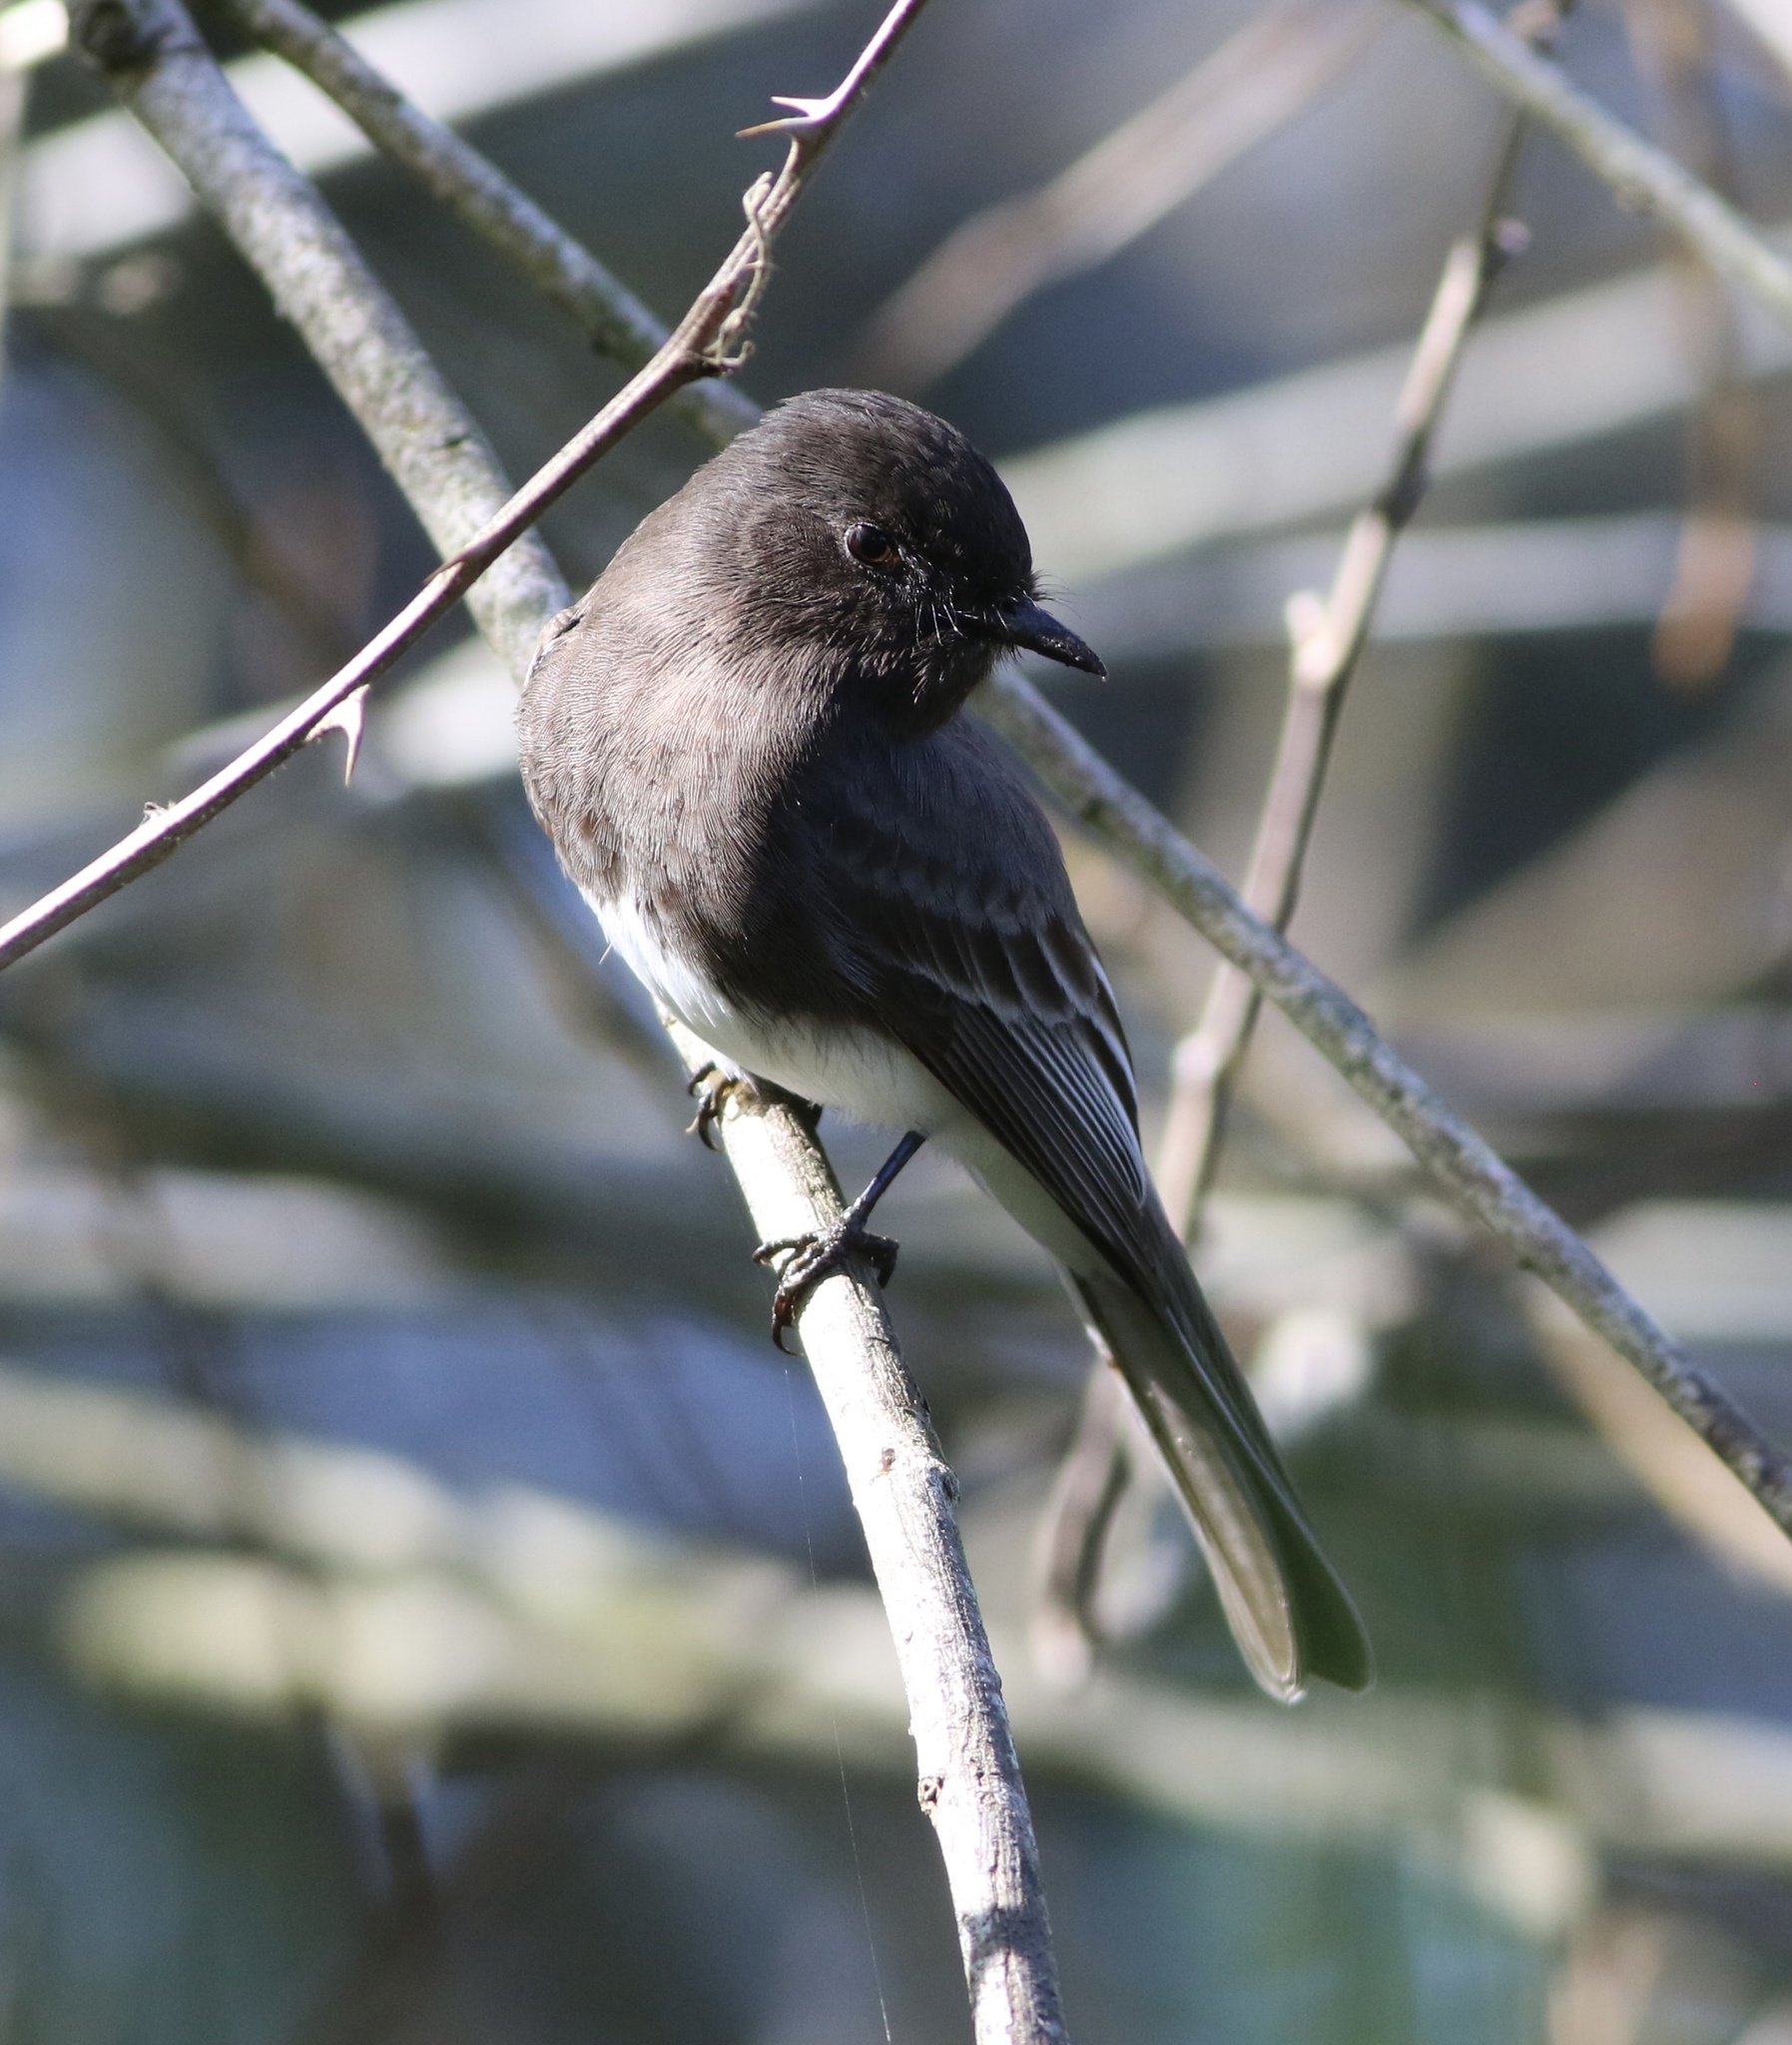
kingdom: Animalia
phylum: Chordata
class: Aves
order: Passeriformes
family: Tyrannidae
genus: Sayornis
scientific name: Sayornis nigricans
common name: Black phoebe
